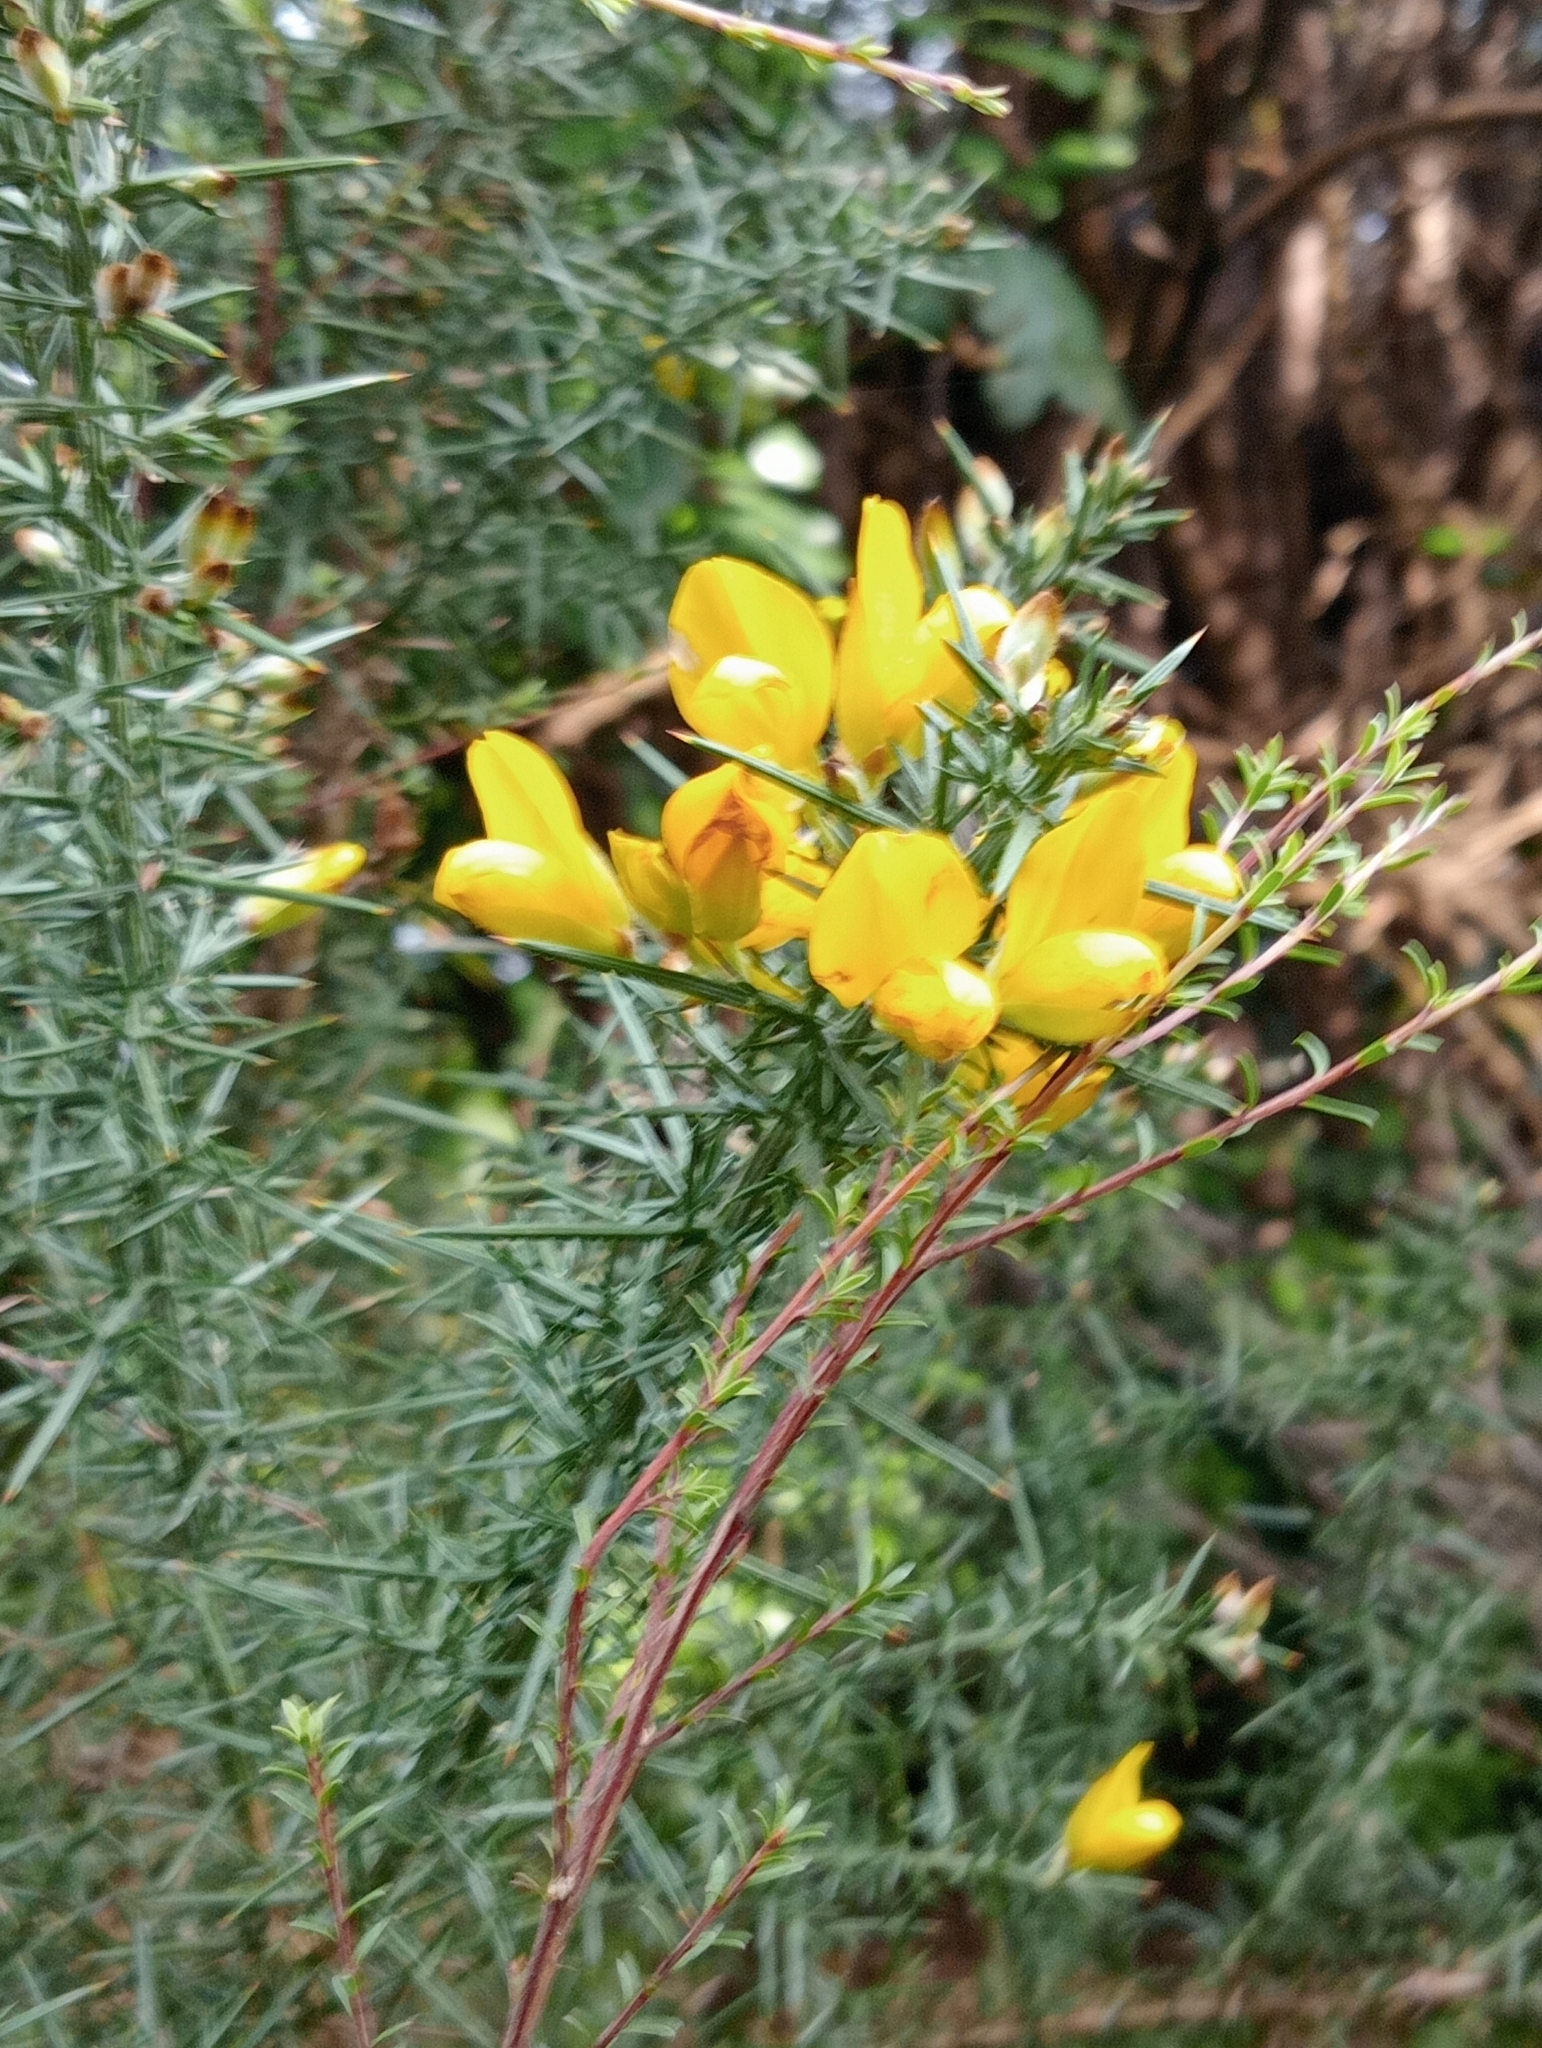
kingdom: Plantae
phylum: Tracheophyta
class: Magnoliopsida
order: Fabales
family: Fabaceae
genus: Ulex
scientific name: Ulex europaeus
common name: Common gorse
